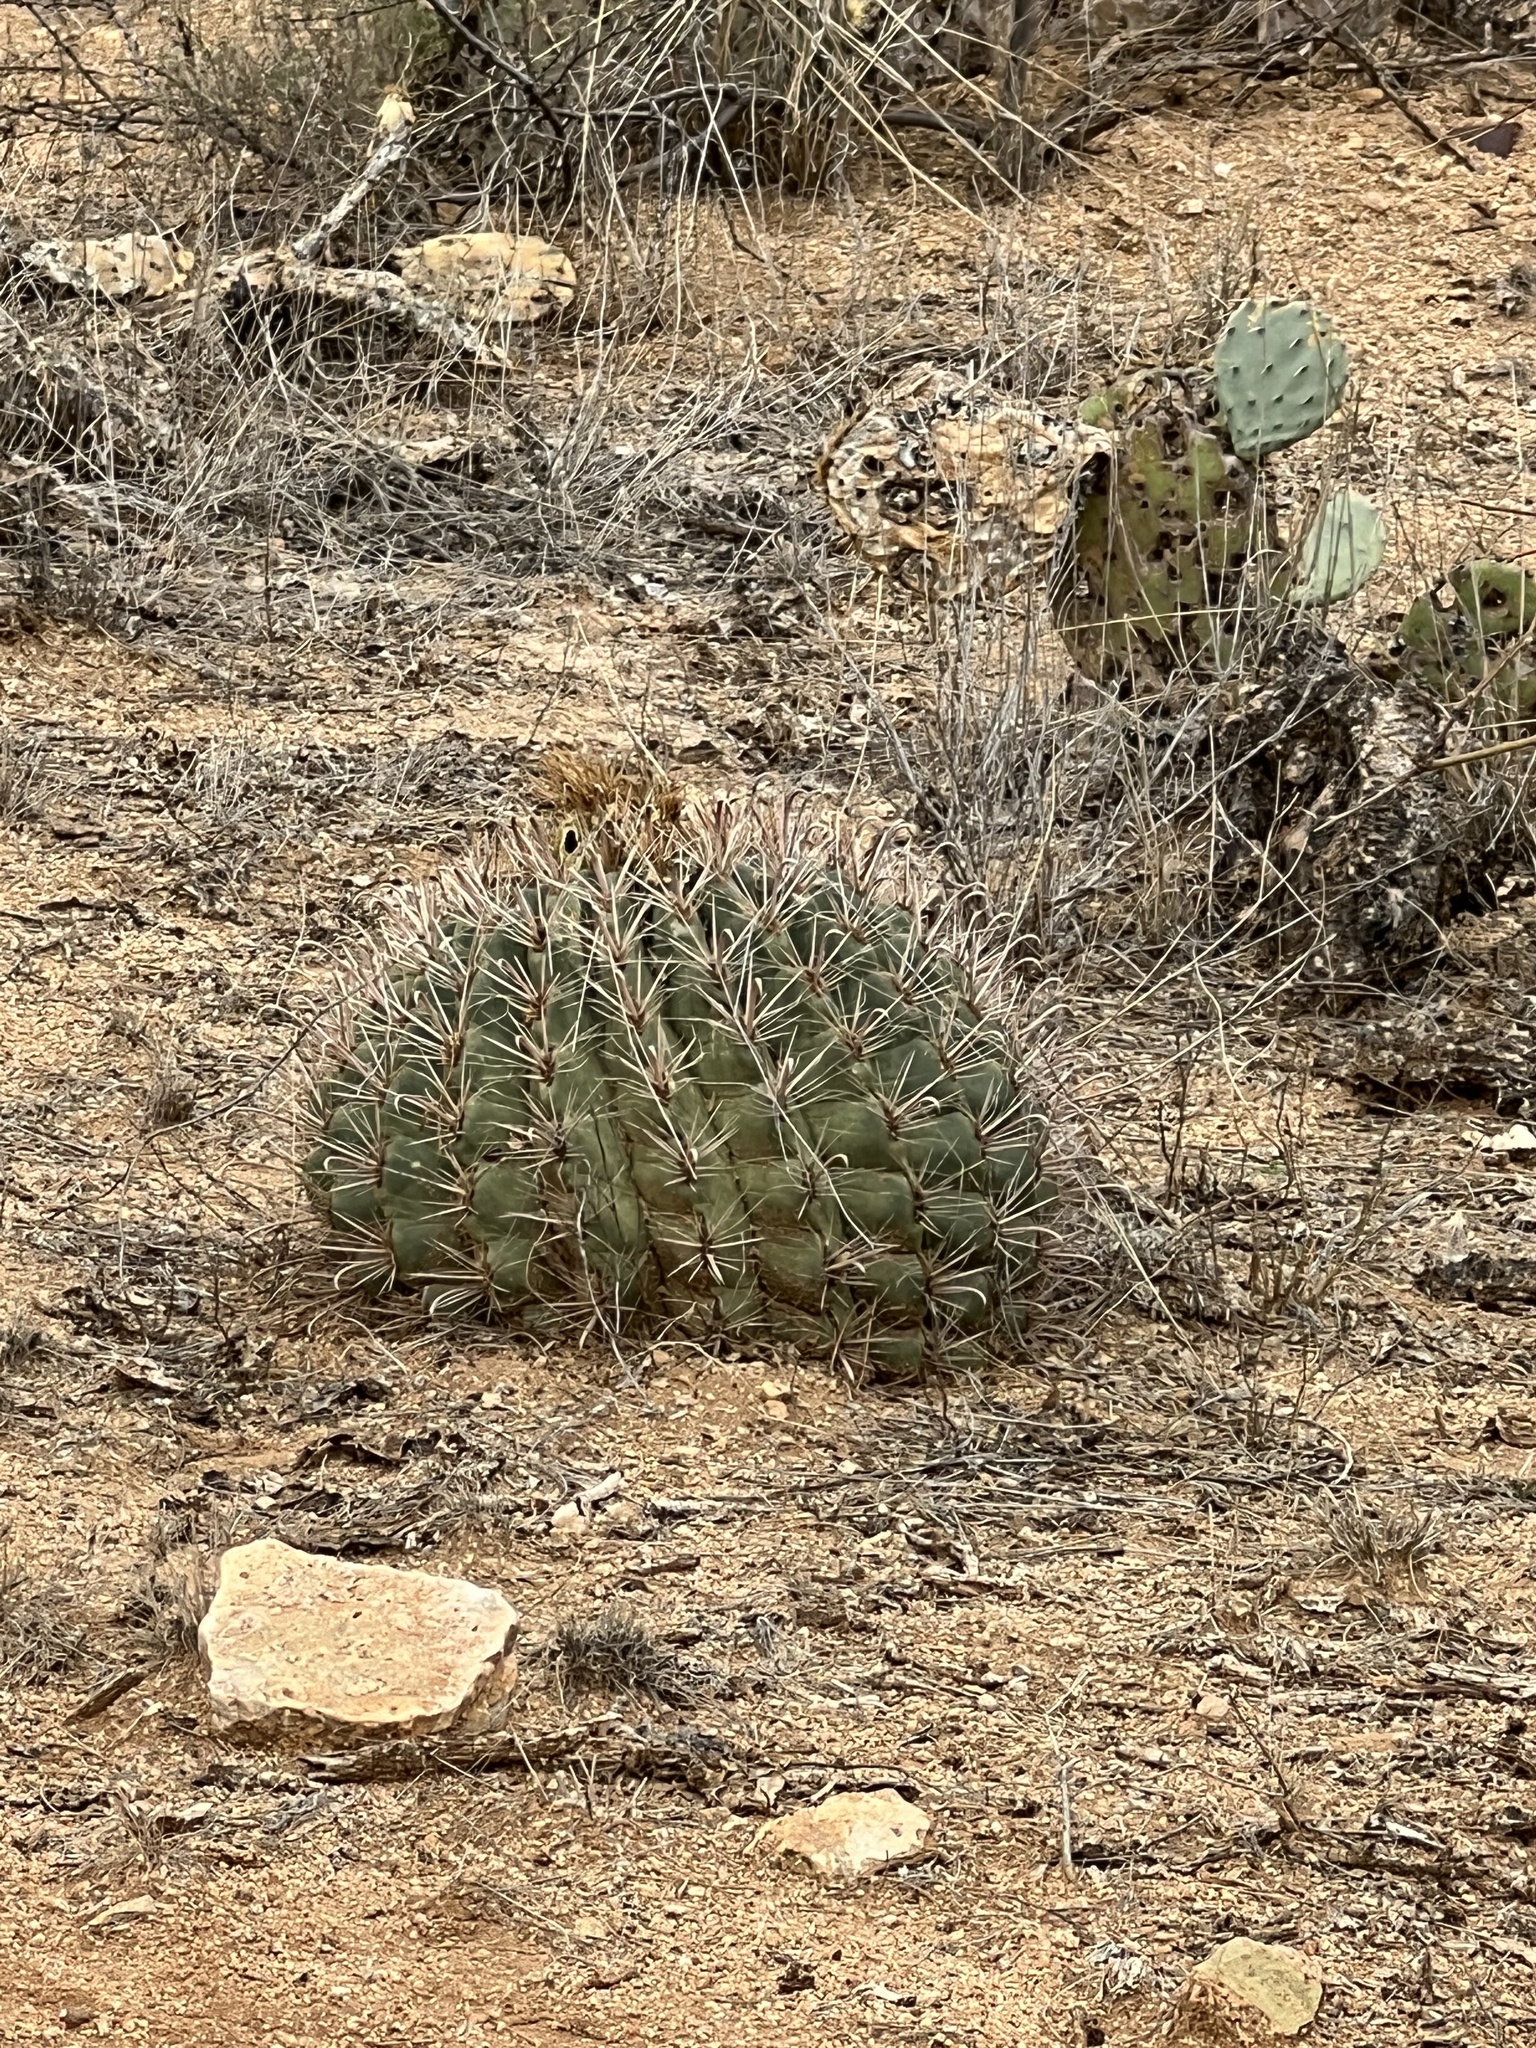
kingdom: Plantae
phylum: Tracheophyta
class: Magnoliopsida
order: Caryophyllales
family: Cactaceae
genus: Ferocactus
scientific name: Ferocactus wislizeni
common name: Candy barrel cactus
